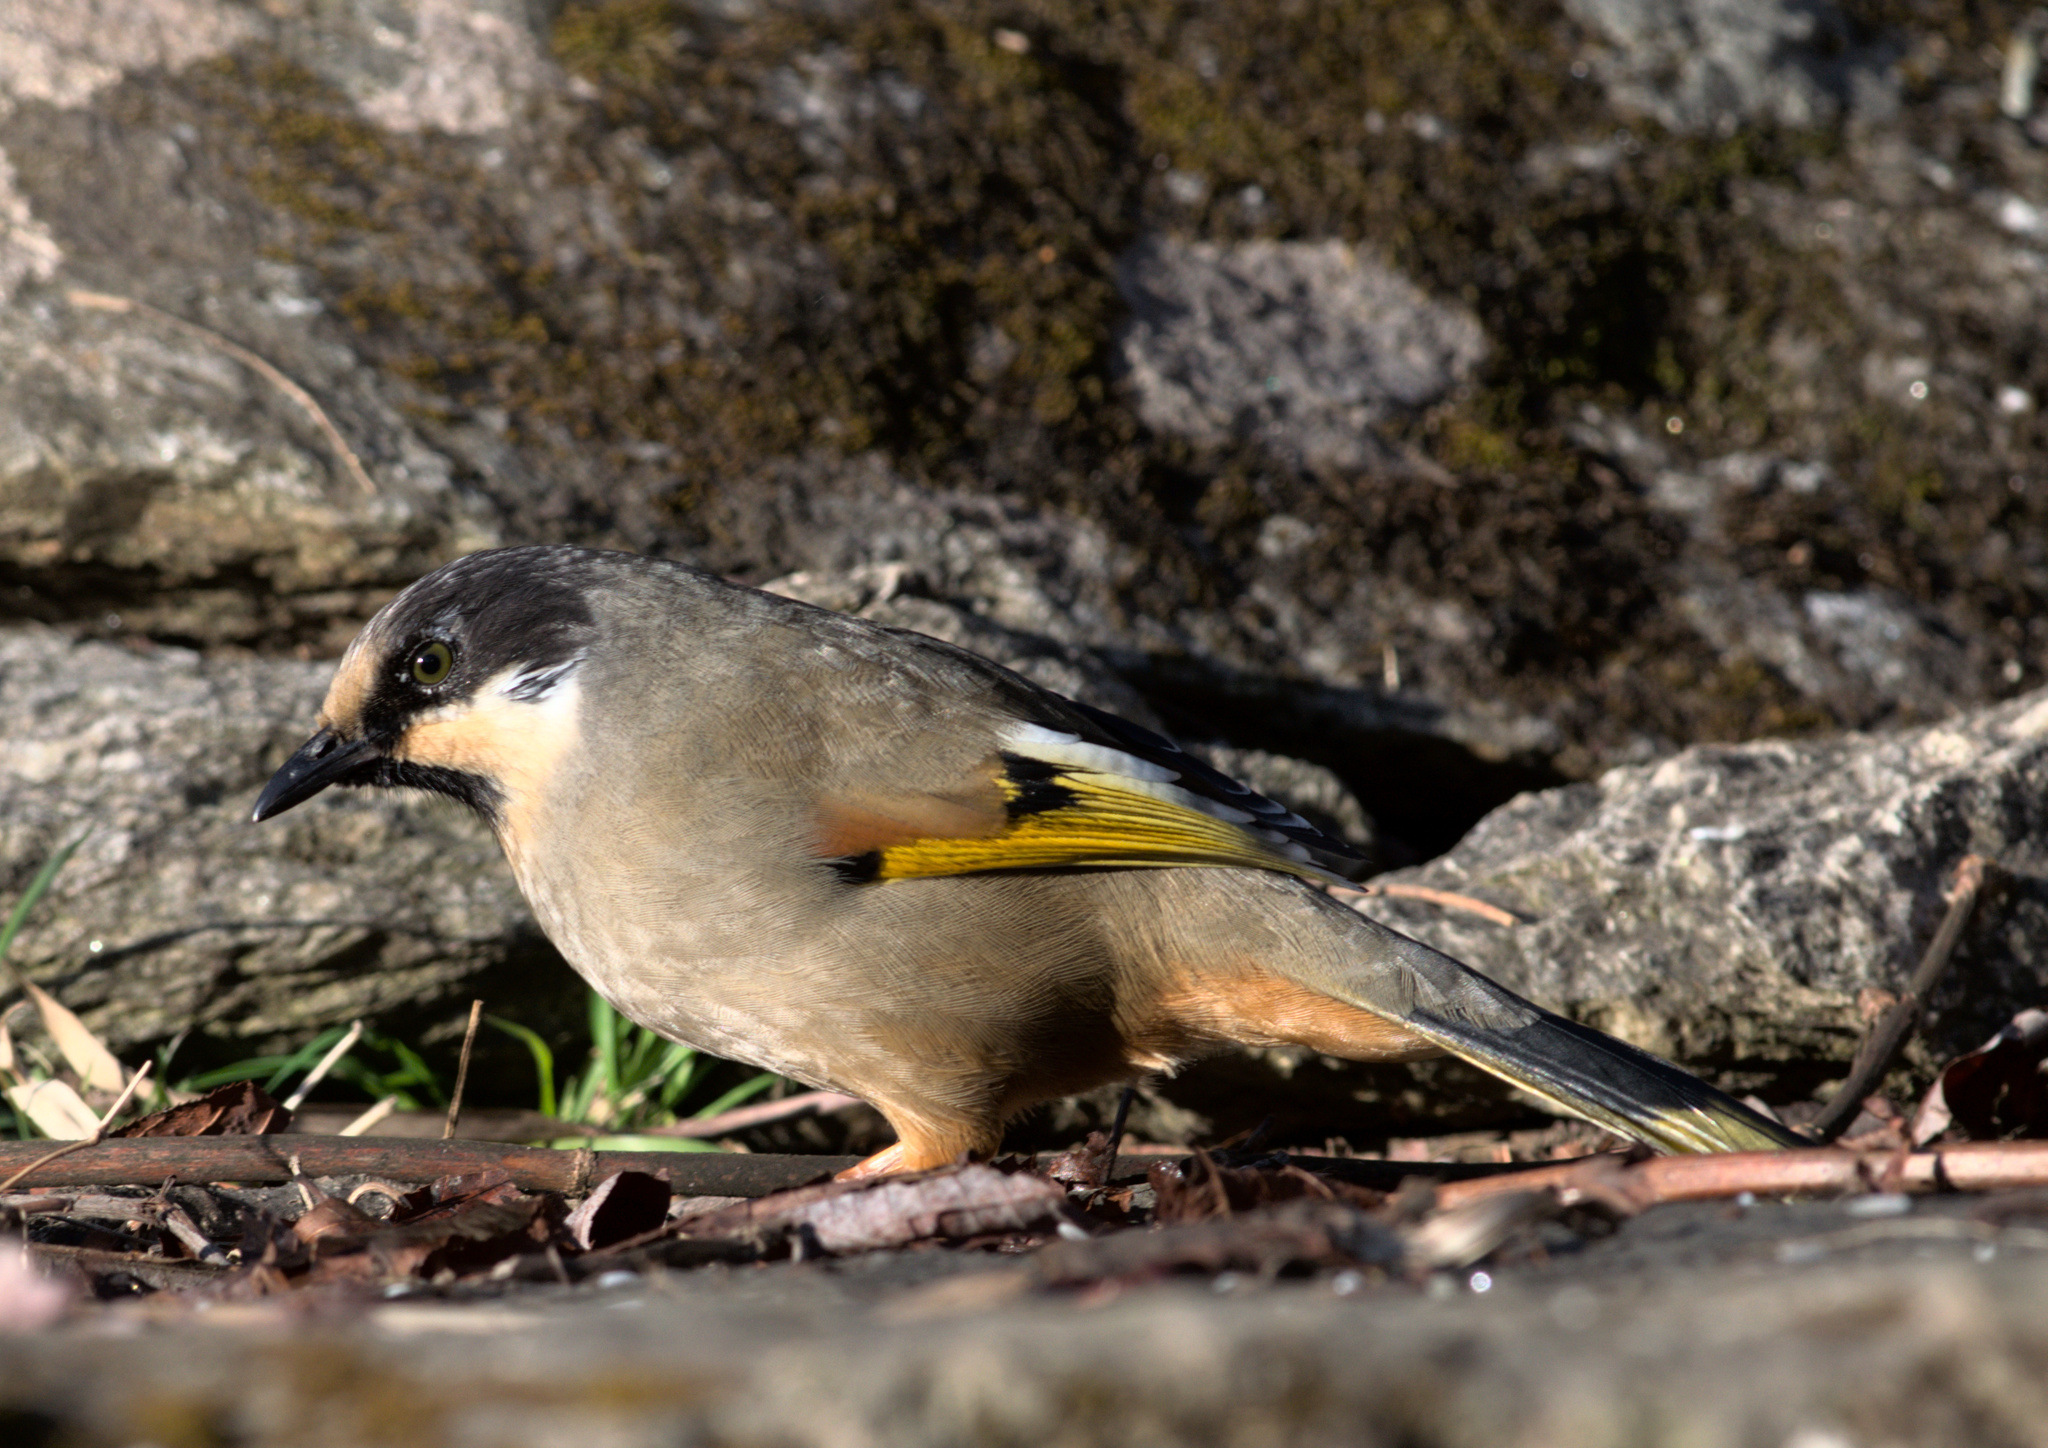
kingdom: Animalia
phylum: Chordata
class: Aves
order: Passeriformes
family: Leiothrichidae
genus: Trochalopteron
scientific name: Trochalopteron variegatum
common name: Variegated laughingthrush
